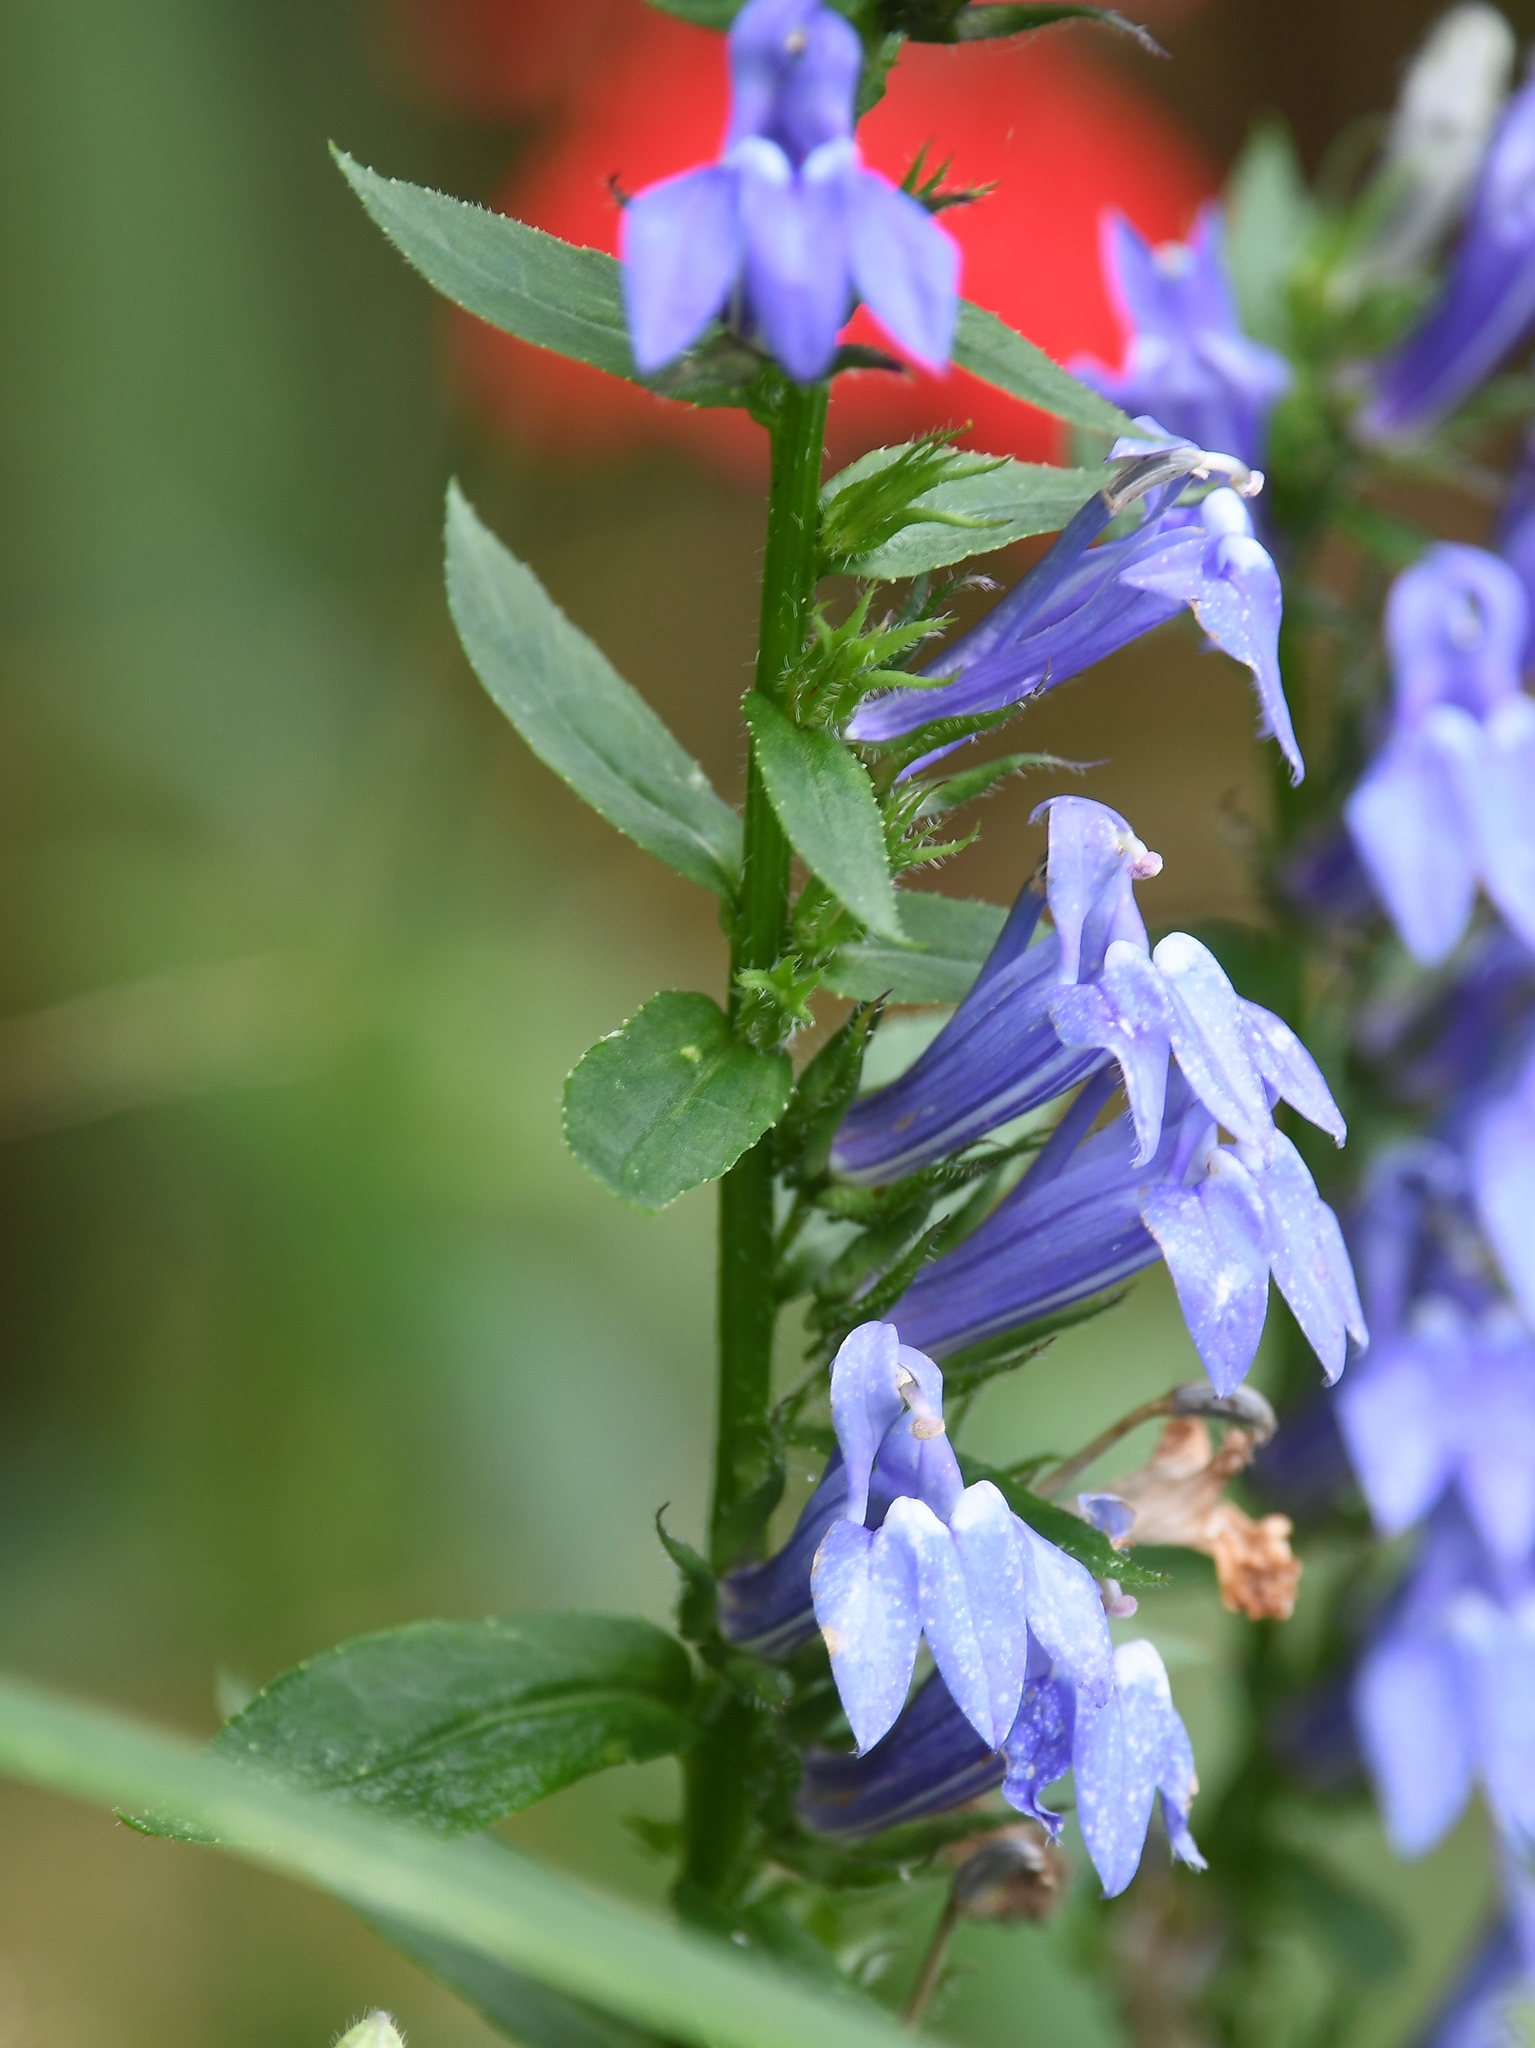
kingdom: Plantae
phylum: Tracheophyta
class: Magnoliopsida
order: Asterales
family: Campanulaceae
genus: Lobelia
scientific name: Lobelia siphilitica
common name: Great lobelia
